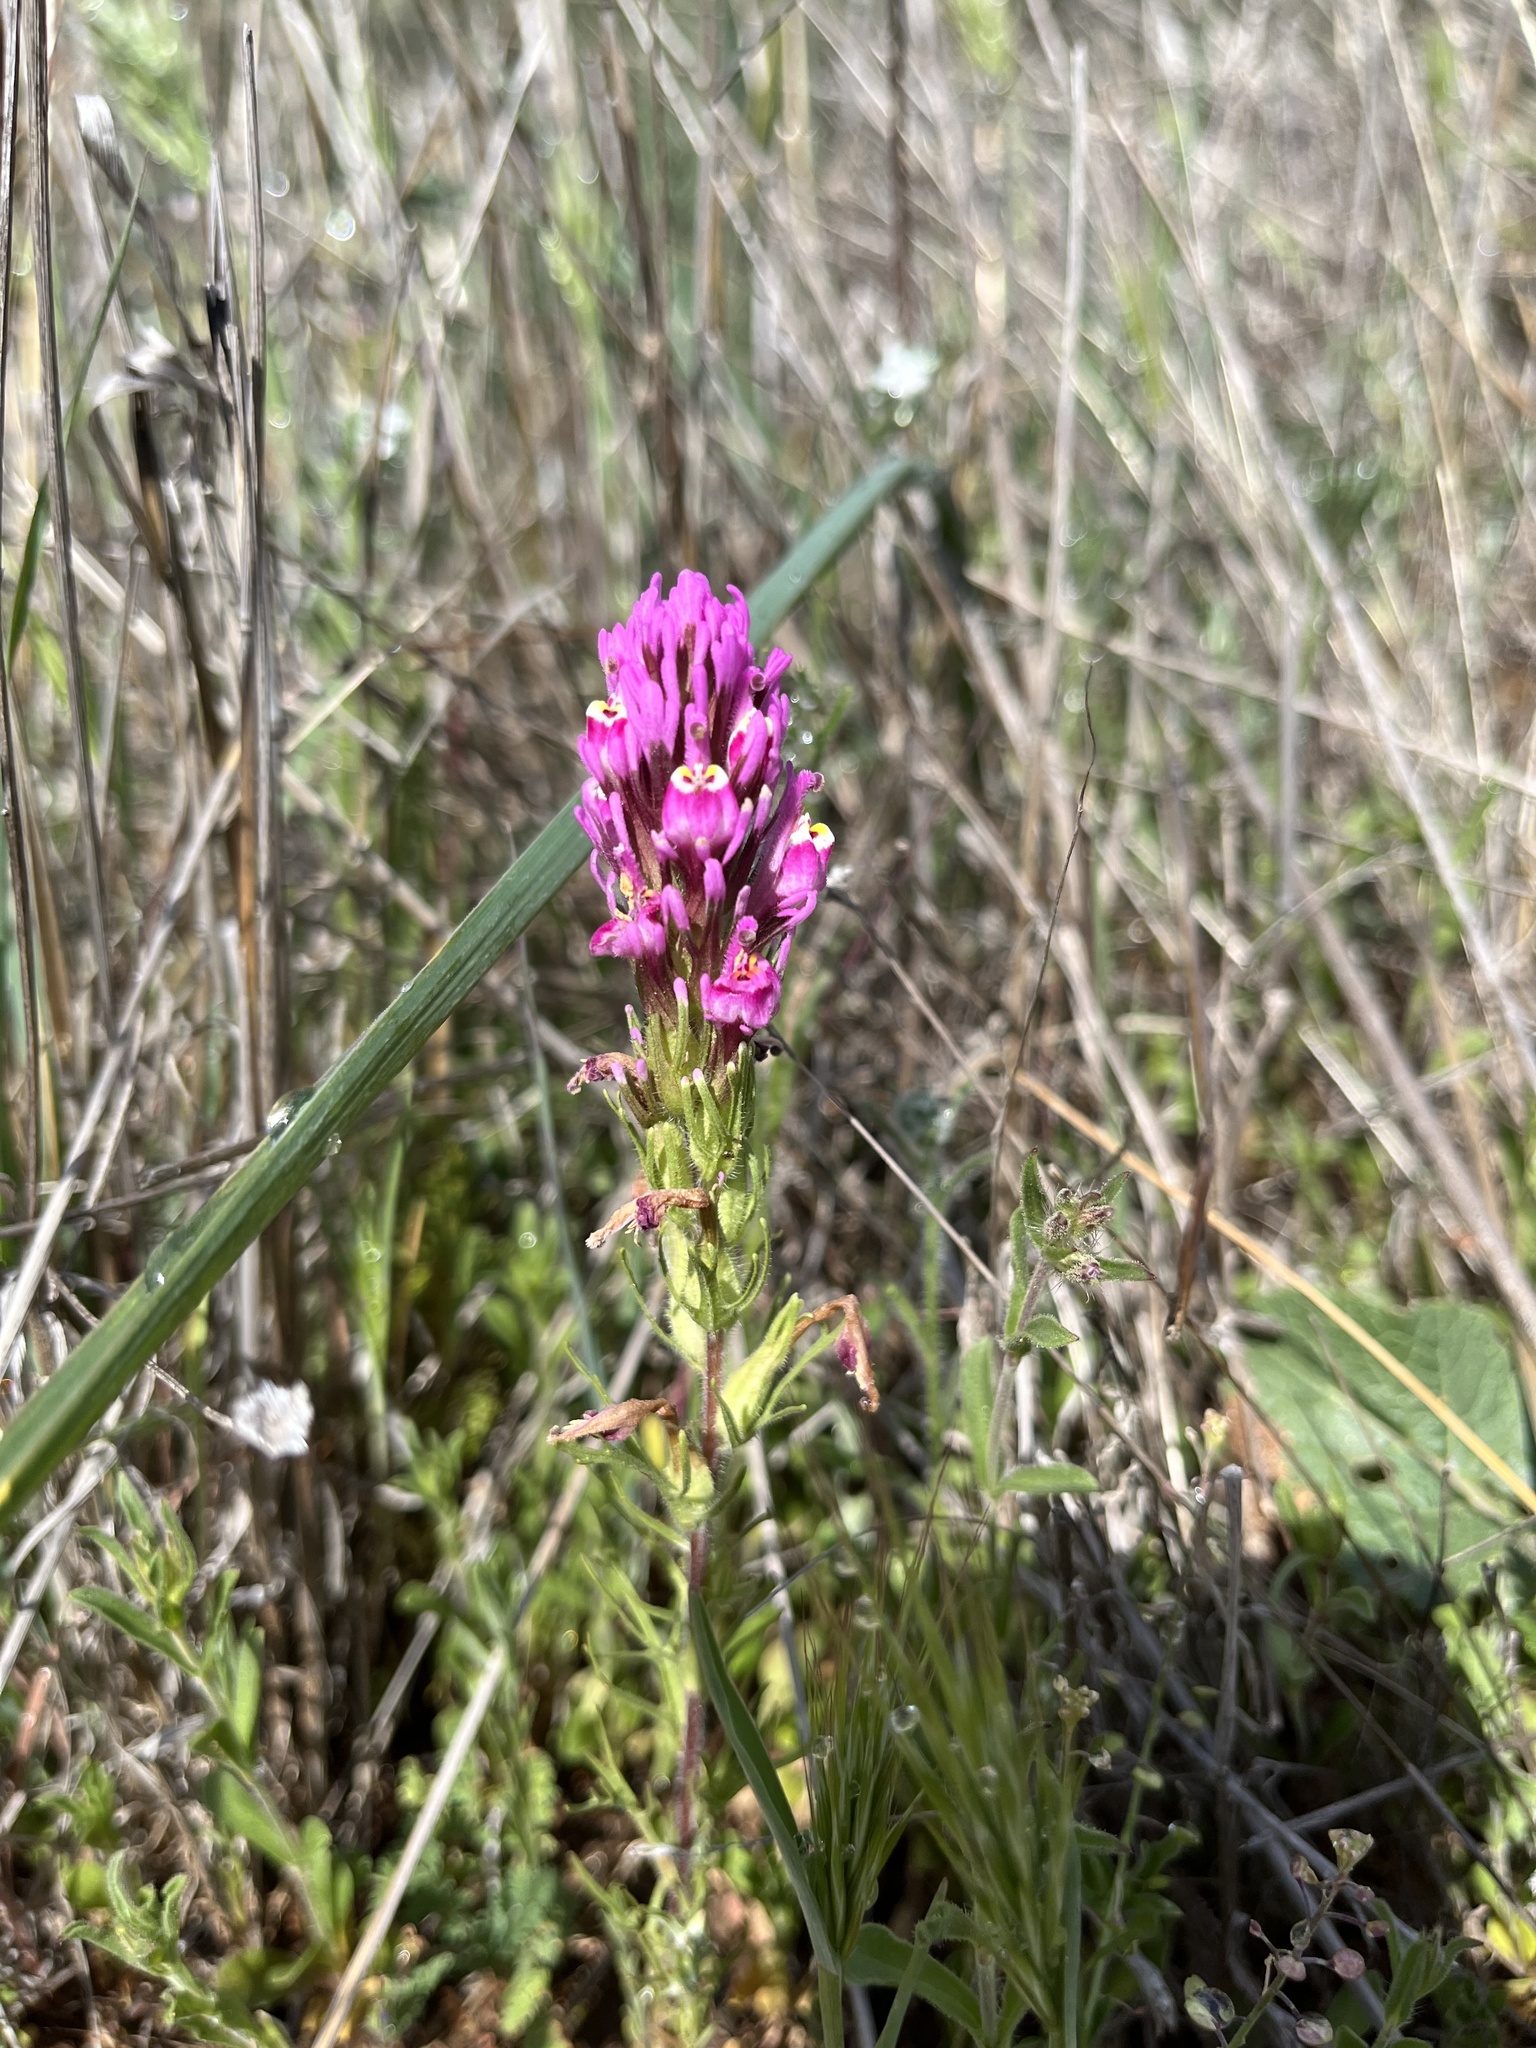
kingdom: Plantae
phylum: Tracheophyta
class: Magnoliopsida
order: Lamiales
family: Orobanchaceae
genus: Castilleja
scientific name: Castilleja exserta
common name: Purple owl-clover
